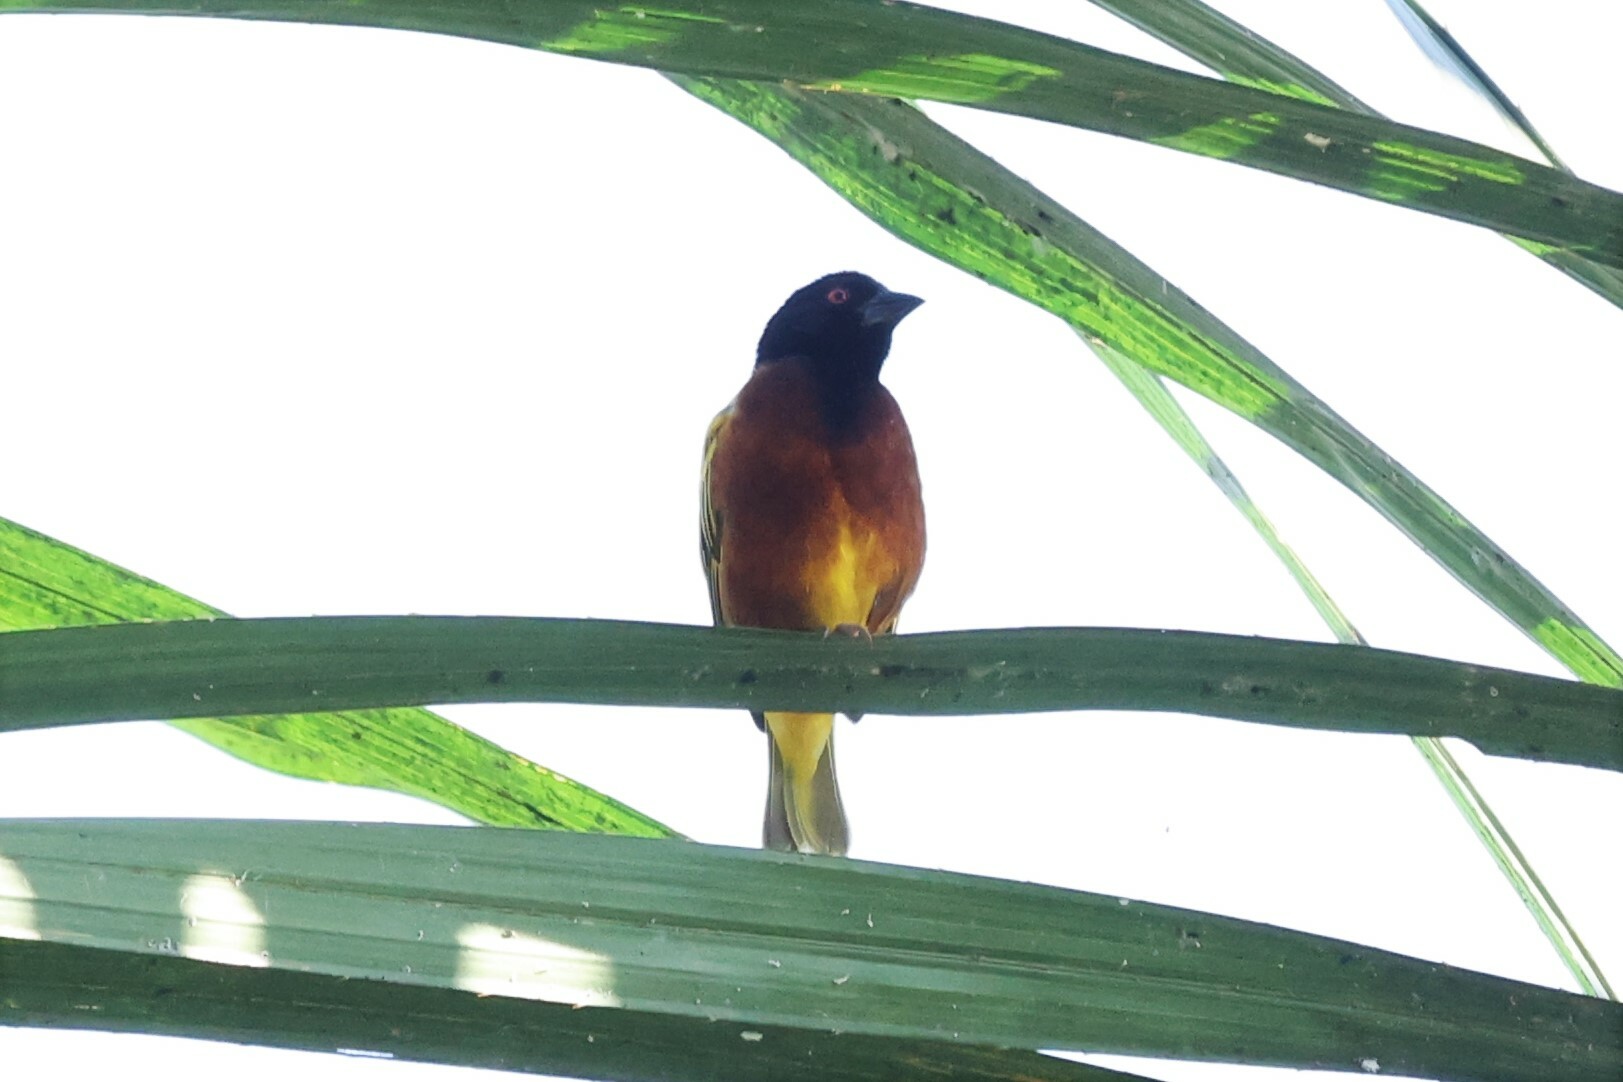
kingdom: Animalia
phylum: Chordata
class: Aves
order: Passeriformes
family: Ploceidae
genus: Ploceus
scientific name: Ploceus jacksoni
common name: Golden-backed weaver
